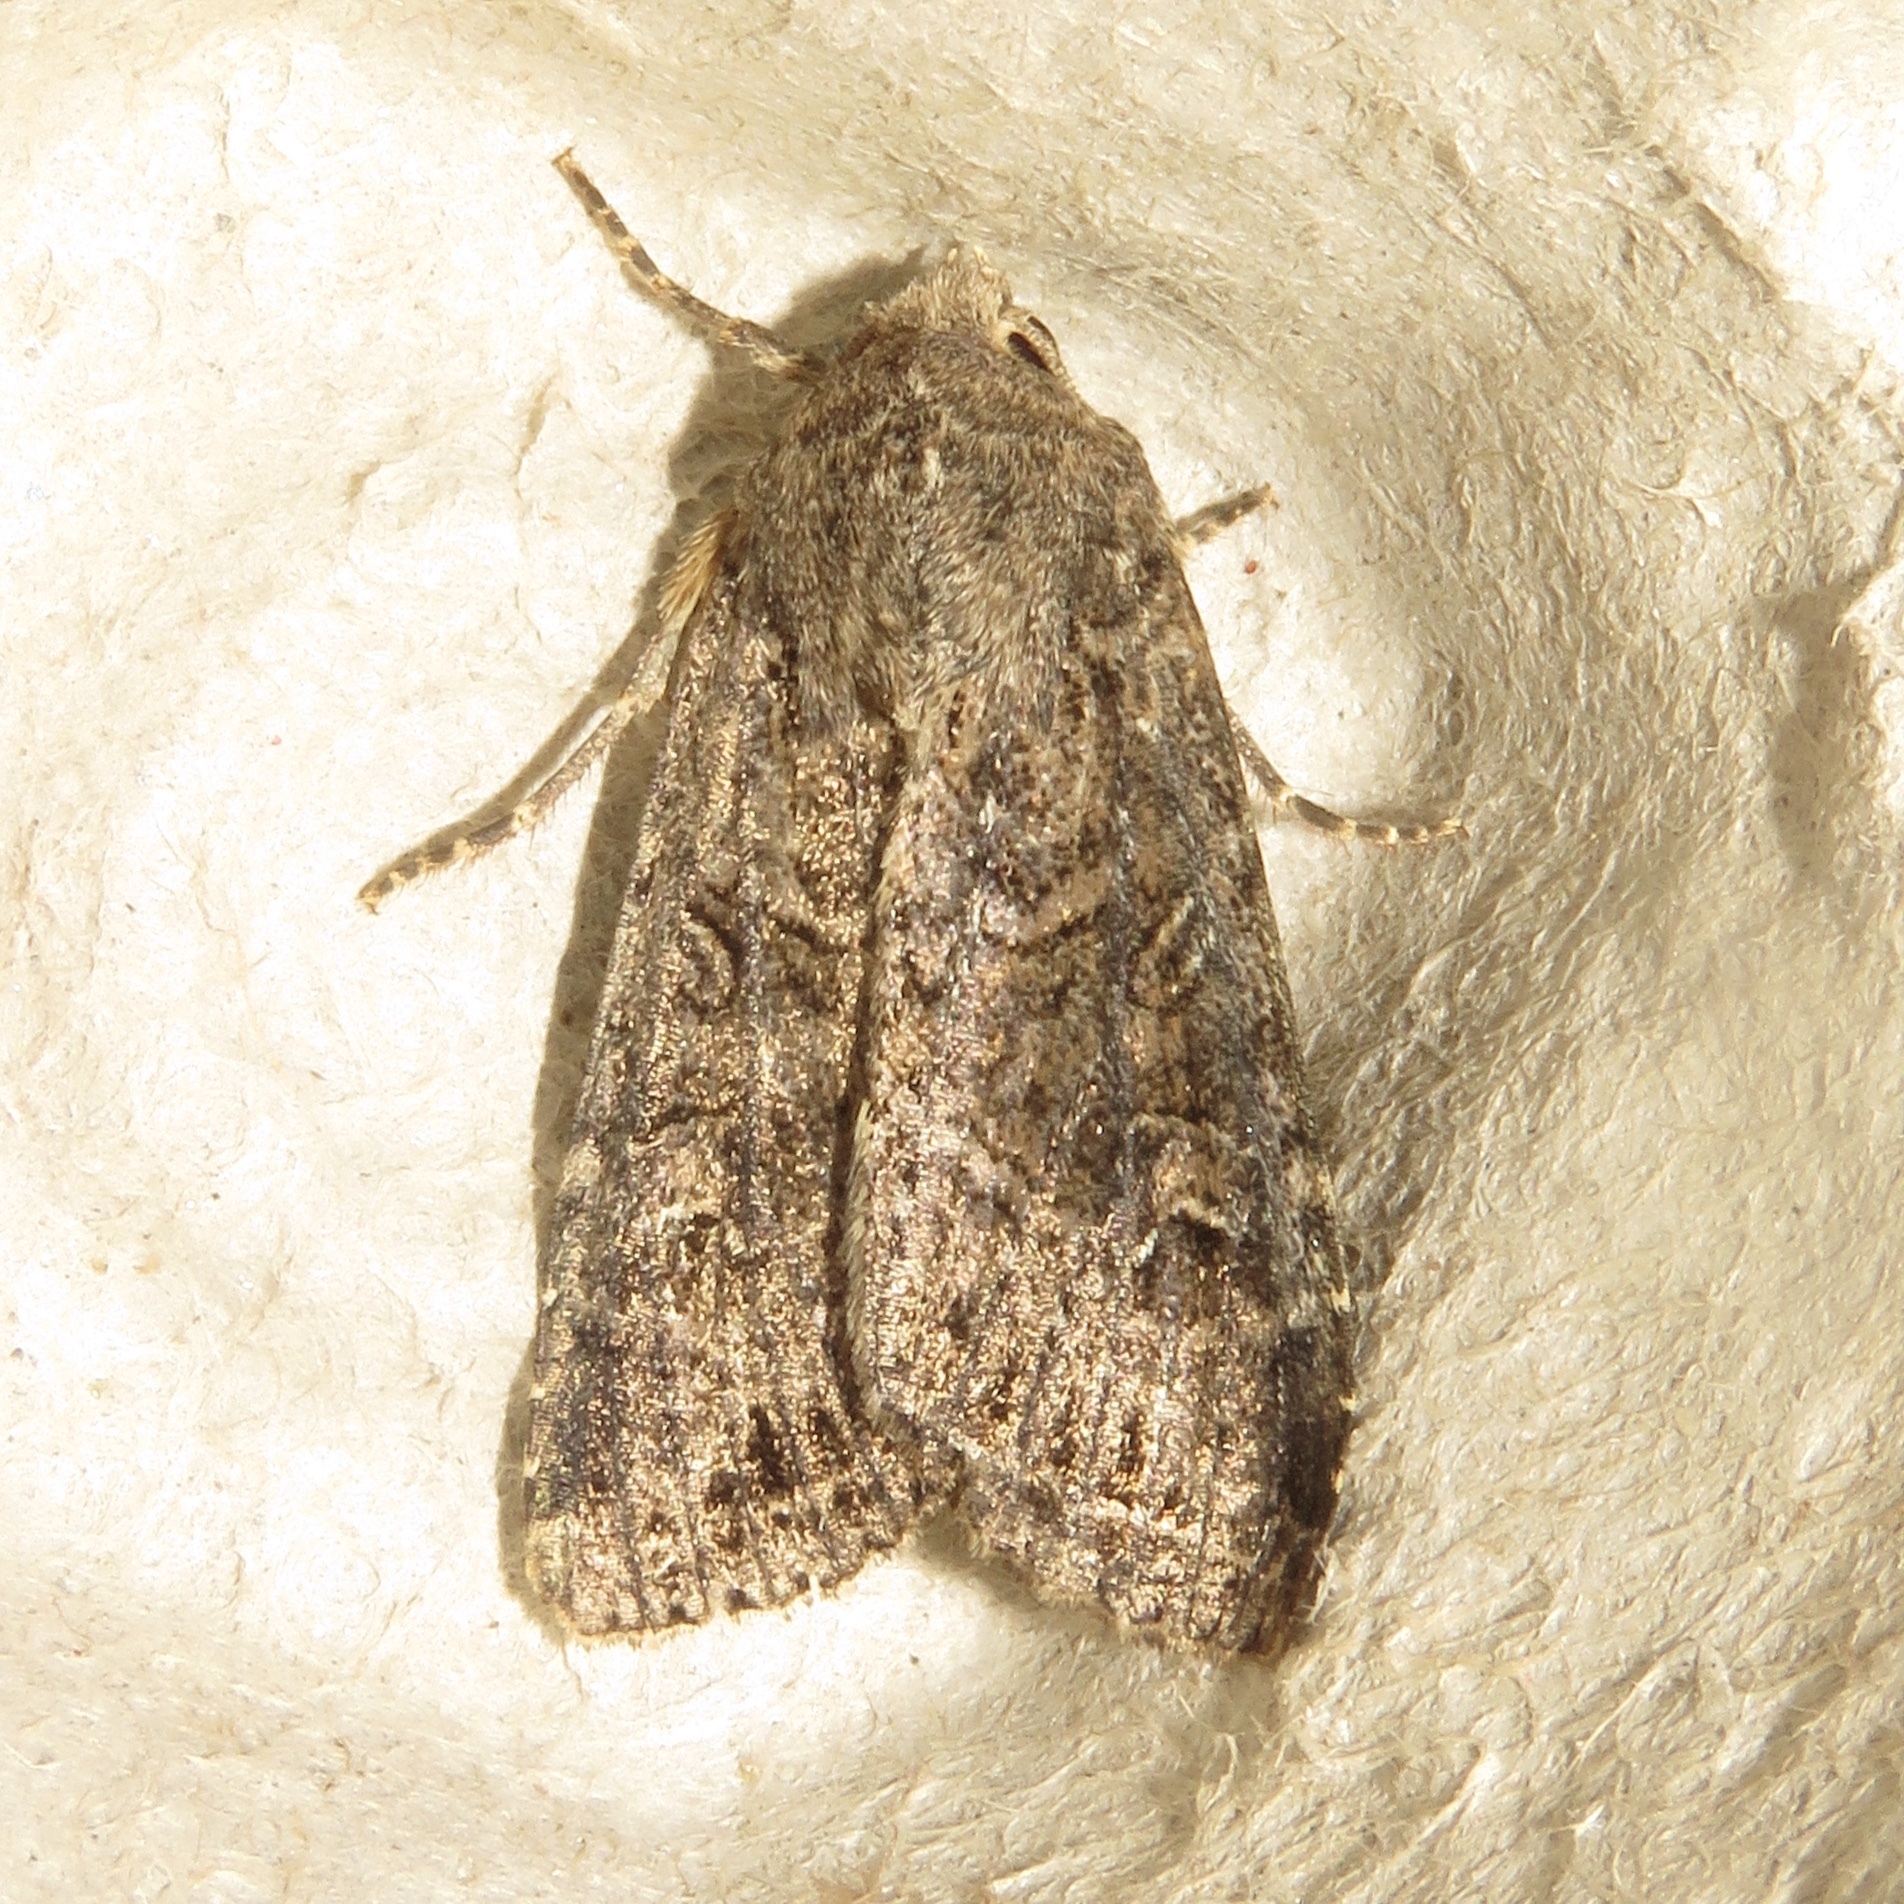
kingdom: Animalia
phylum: Arthropoda
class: Insecta
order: Lepidoptera
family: Noctuidae
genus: Apamea
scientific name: Apamea devastator
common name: Glassy cutworm
